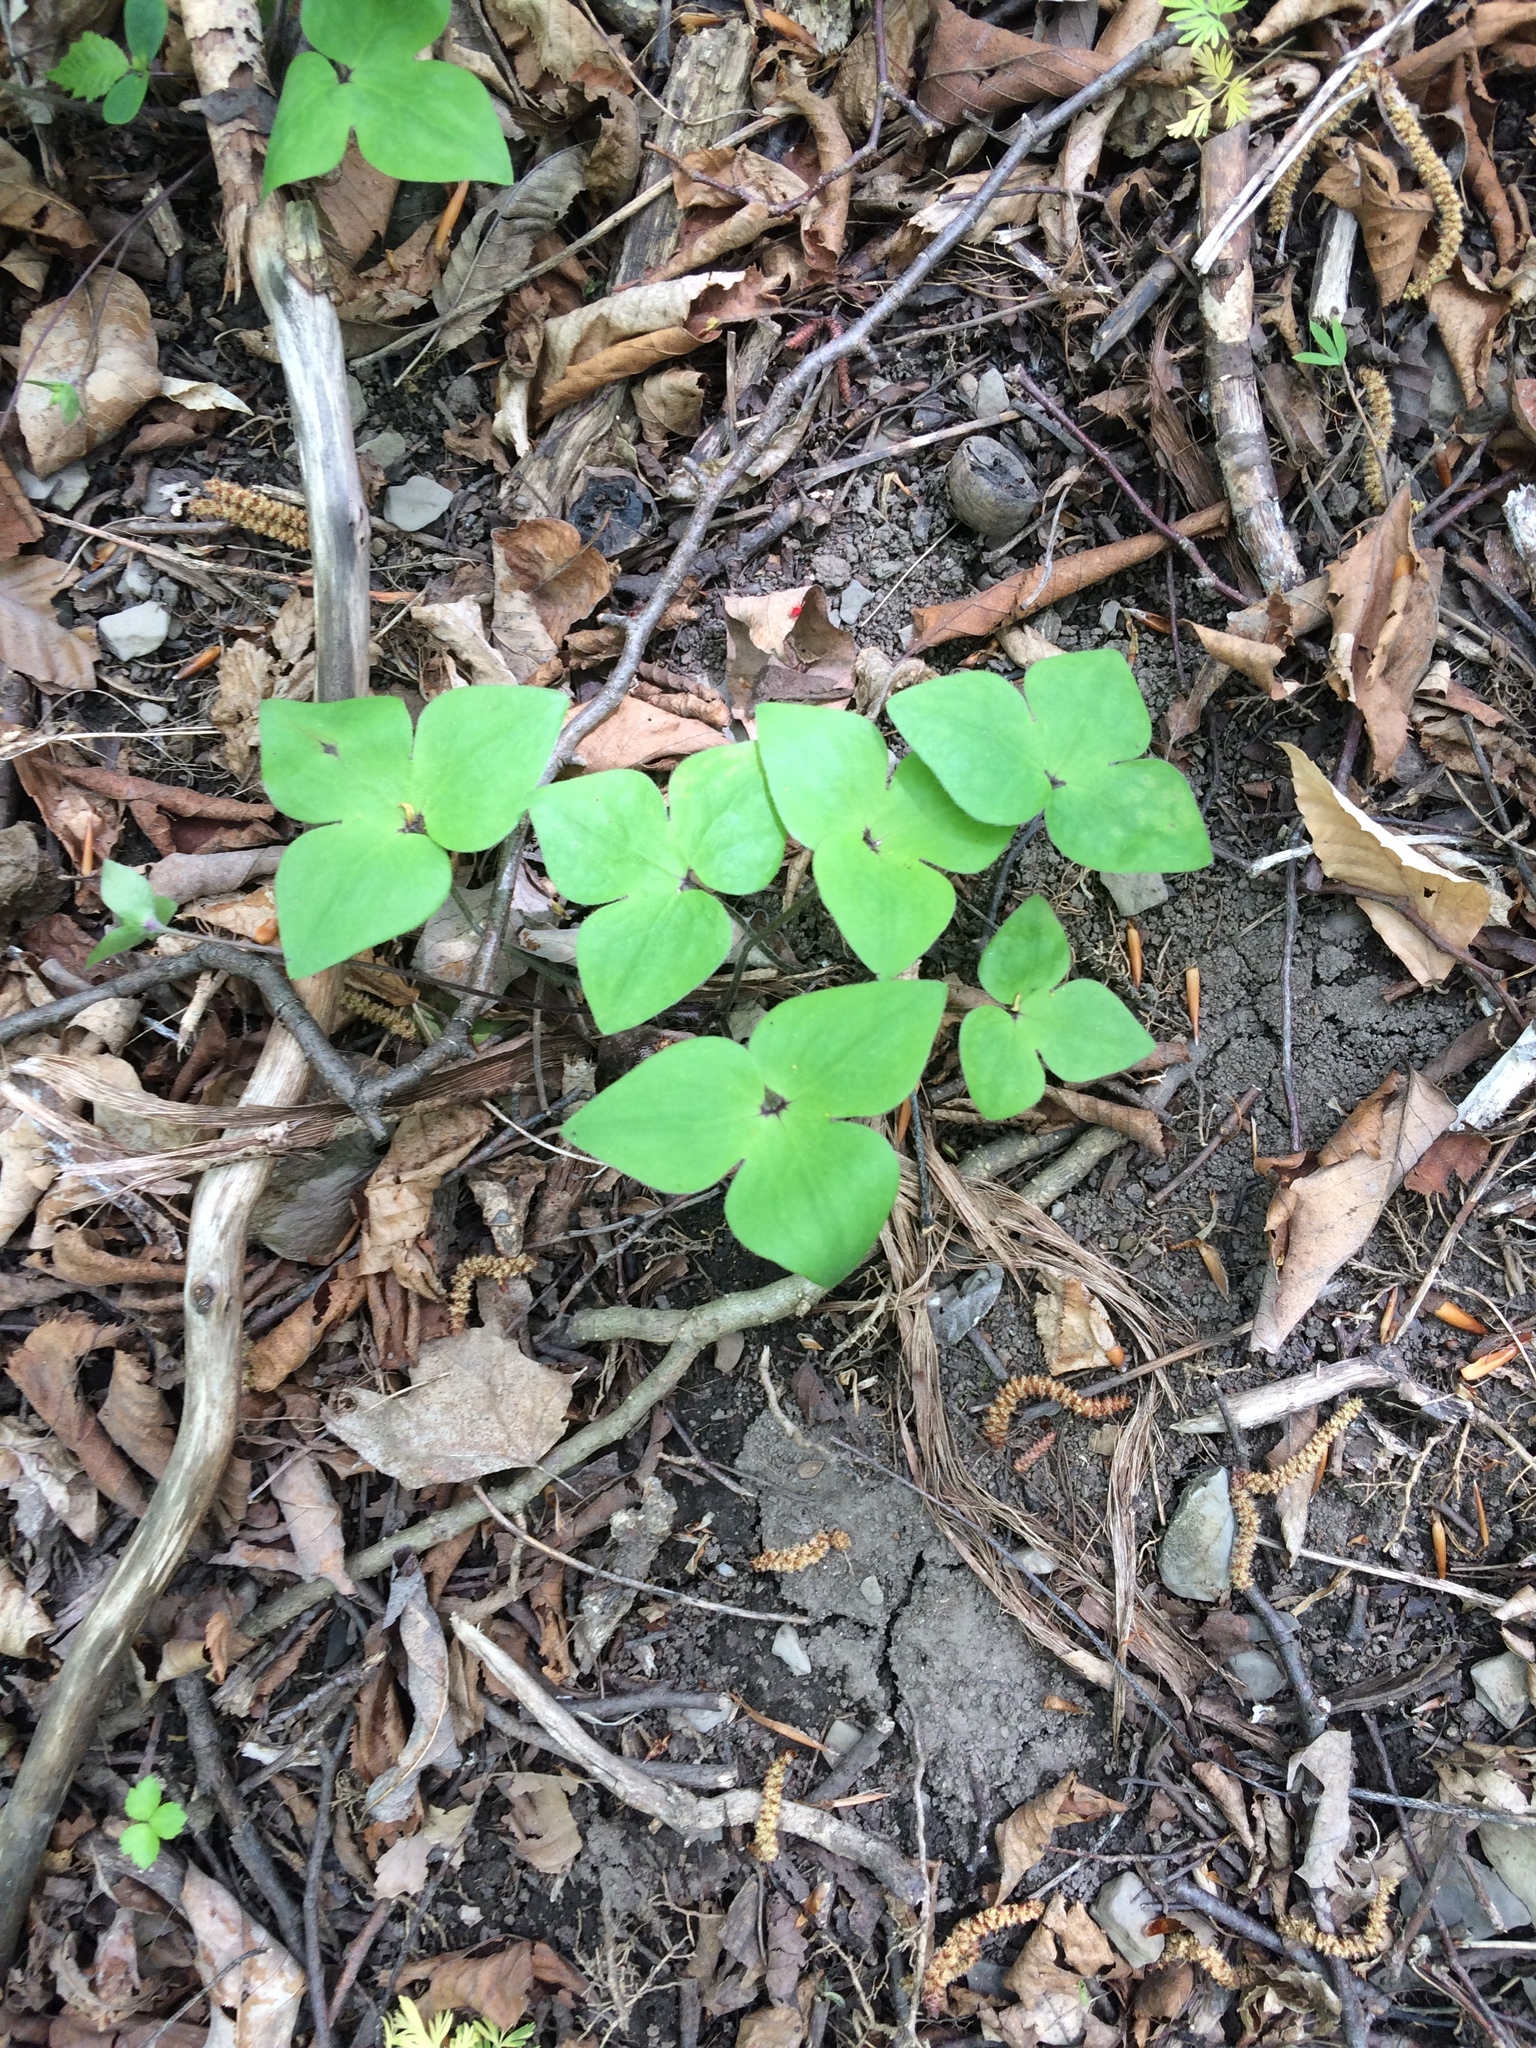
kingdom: Plantae
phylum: Tracheophyta
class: Magnoliopsida
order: Ranunculales
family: Ranunculaceae
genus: Hepatica
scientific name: Hepatica acutiloba
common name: Sharp-lobed hepatica
